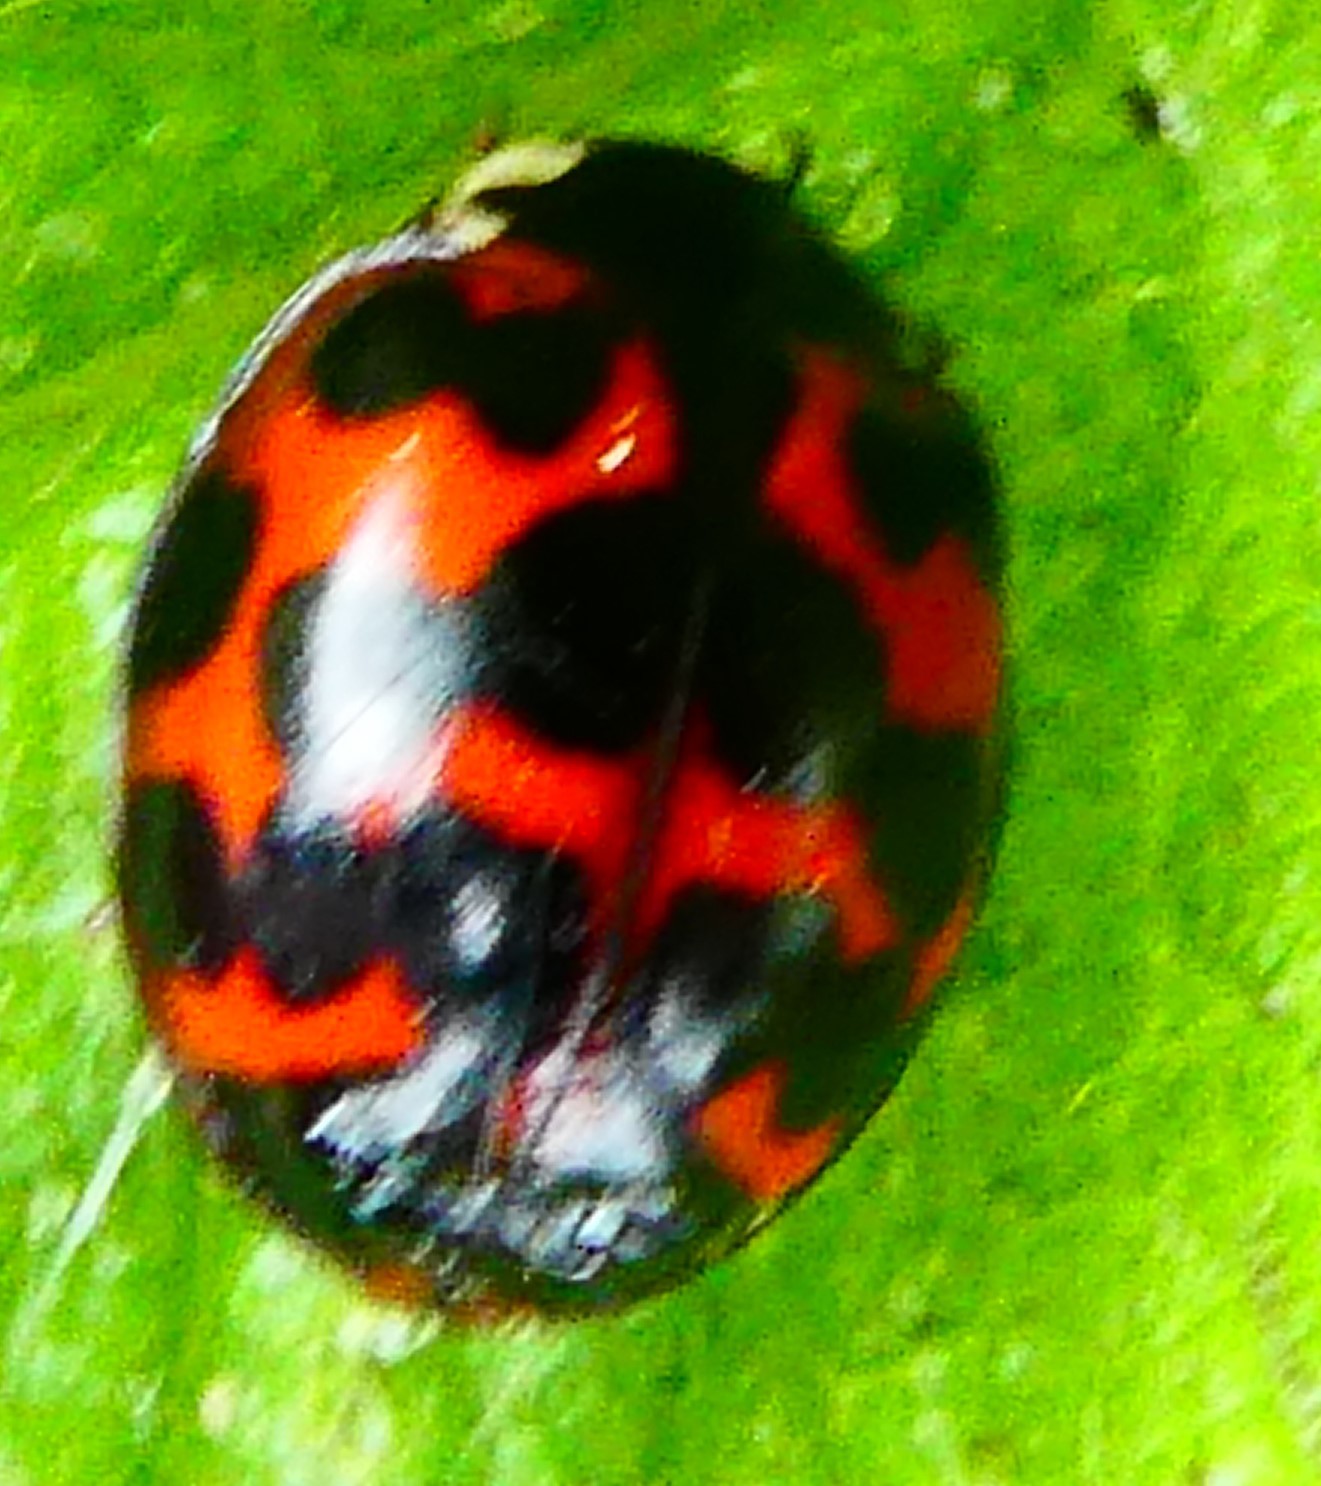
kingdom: Animalia
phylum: Arthropoda
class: Insecta
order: Coleoptera
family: Coccinellidae
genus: Harmonia
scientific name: Harmonia axyridis
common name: Harlequin ladybird
